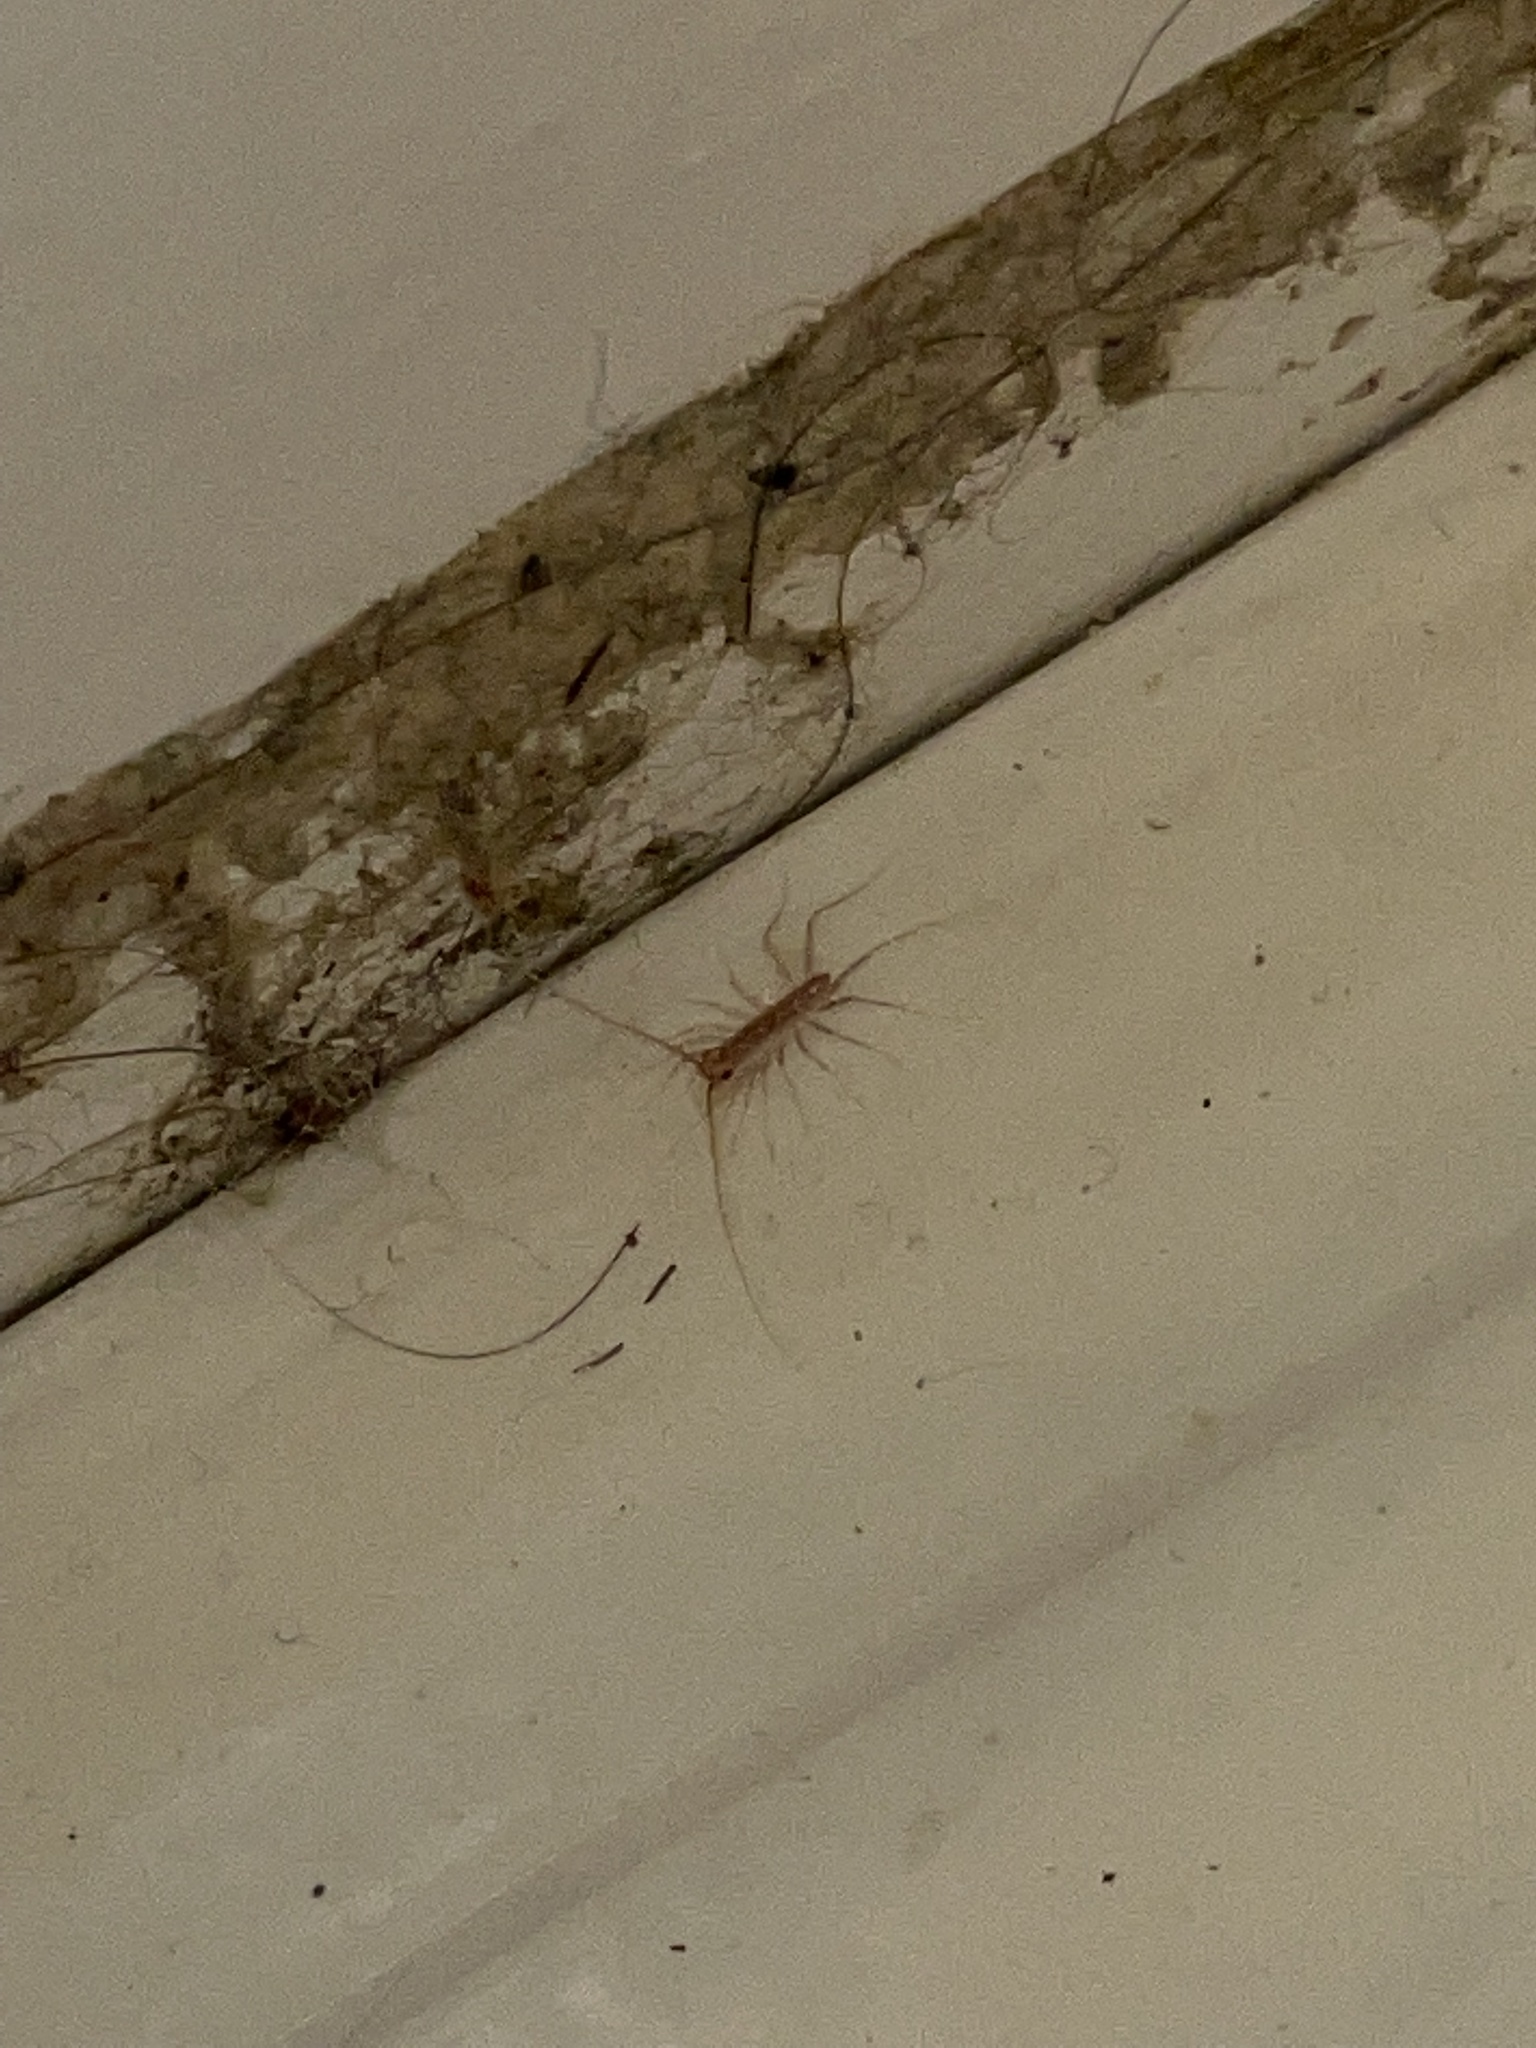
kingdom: Animalia
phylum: Arthropoda
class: Chilopoda
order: Scutigeromorpha
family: Scutigeridae
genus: Scutigera
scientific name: Scutigera coleoptrata
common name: House centipede
